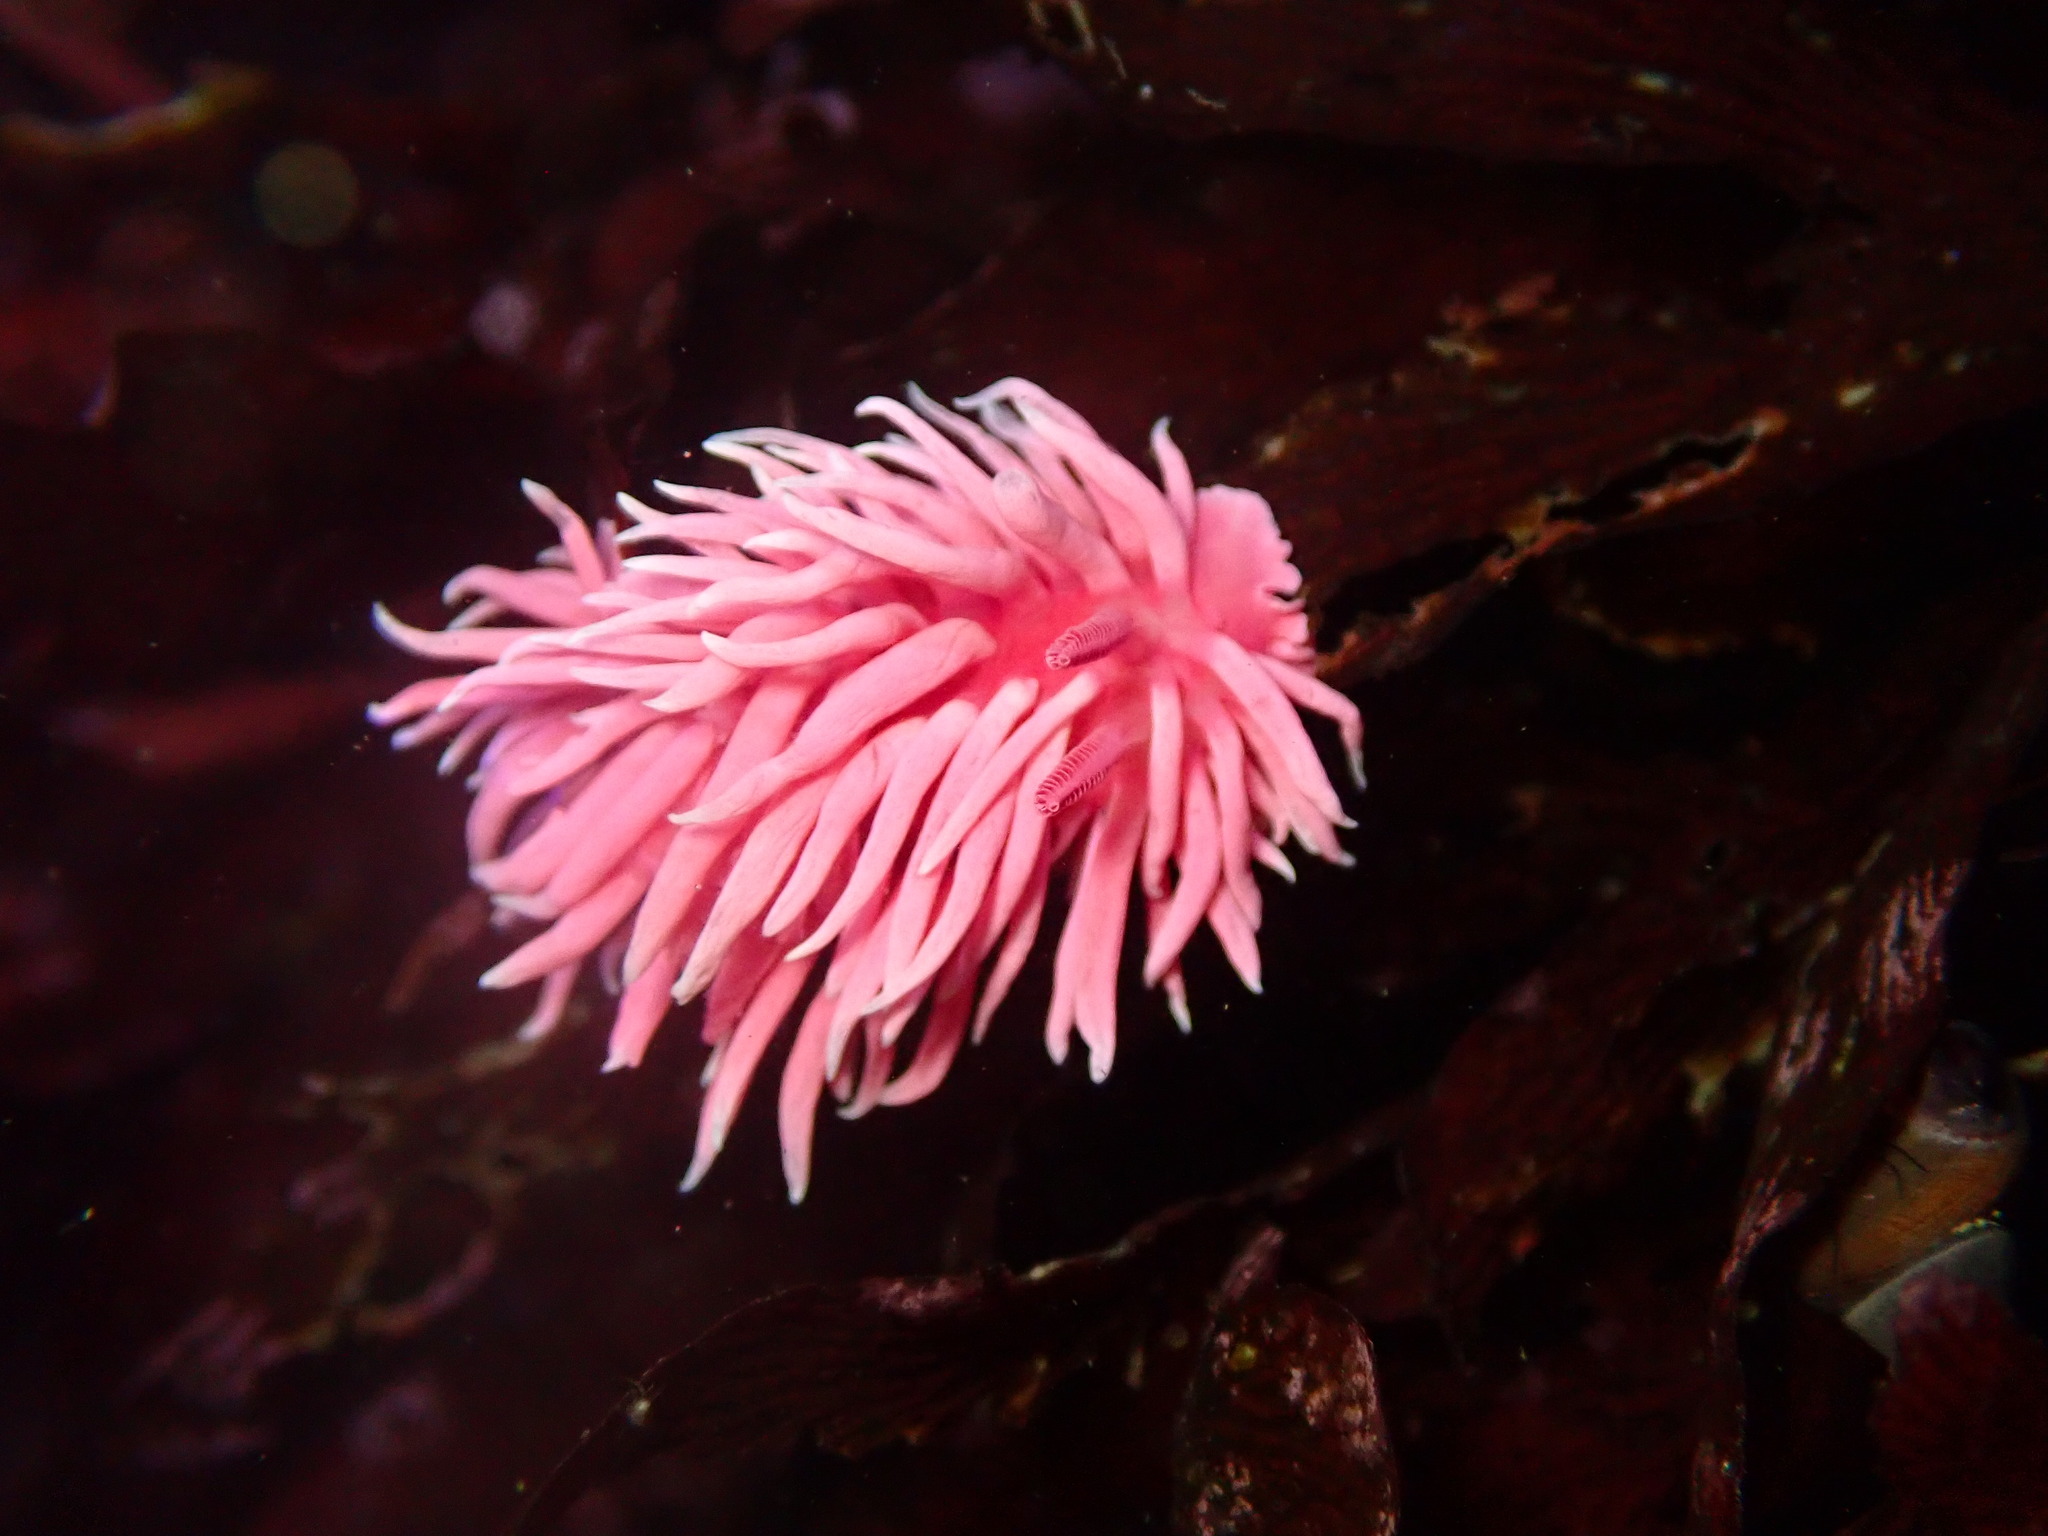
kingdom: Animalia
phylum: Mollusca
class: Gastropoda
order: Nudibranchia
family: Goniodorididae
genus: Okenia
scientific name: Okenia
